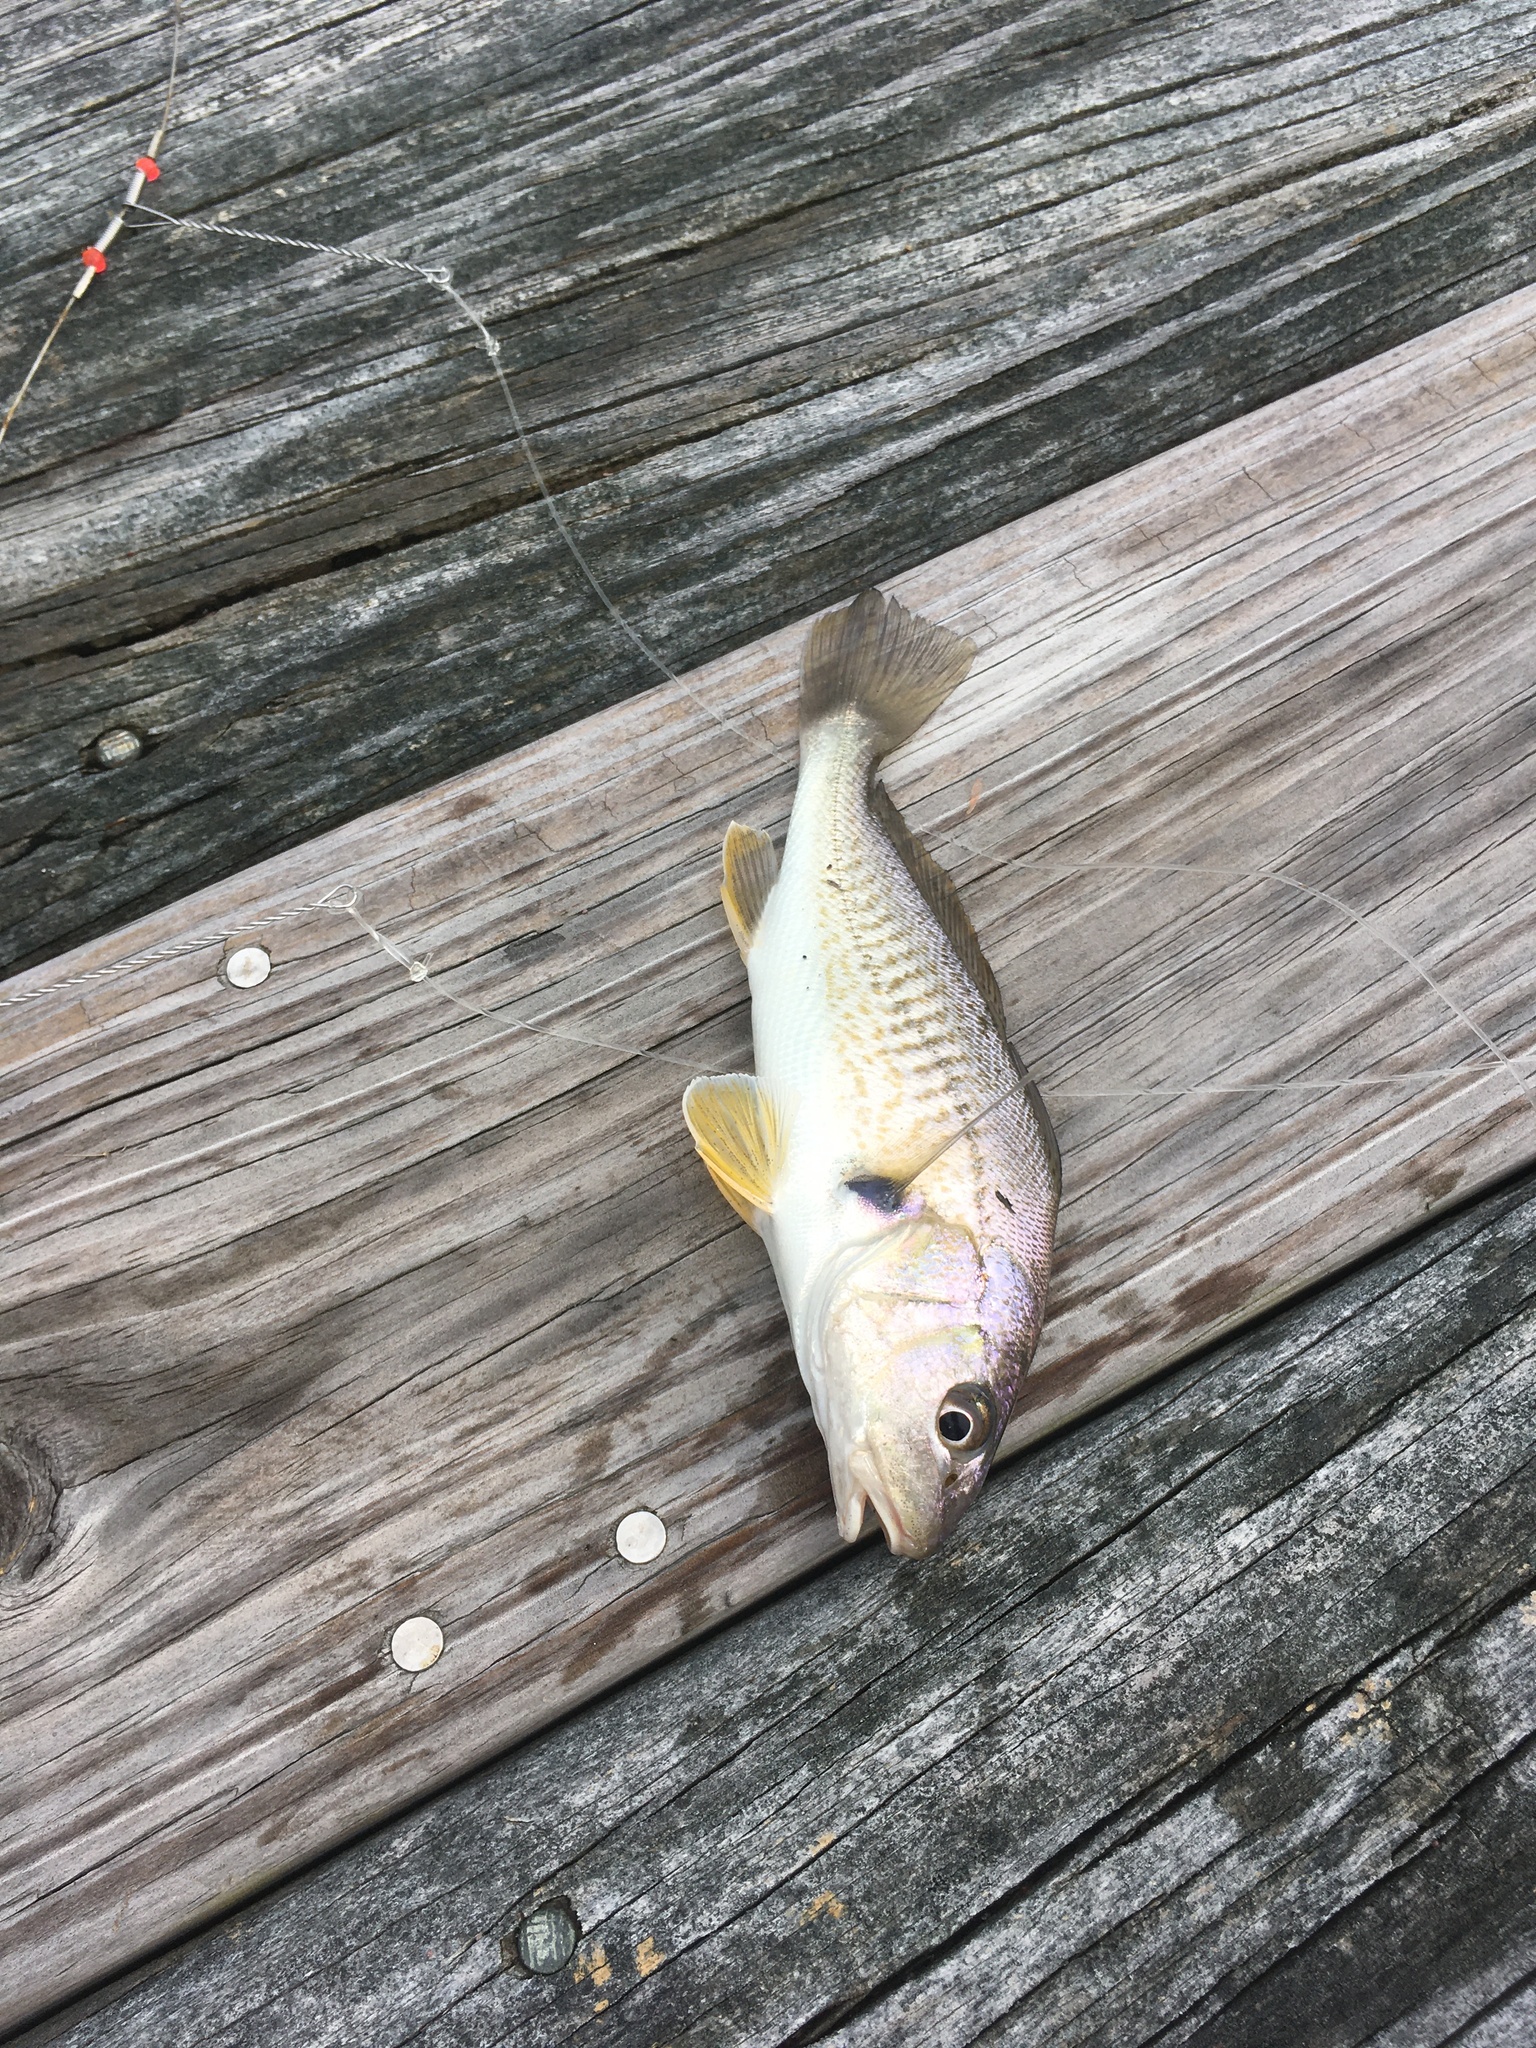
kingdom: Animalia
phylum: Chordata
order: Perciformes
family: Sciaenidae
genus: Micropogonias
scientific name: Micropogonias undulatus
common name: Atlantic croaker
